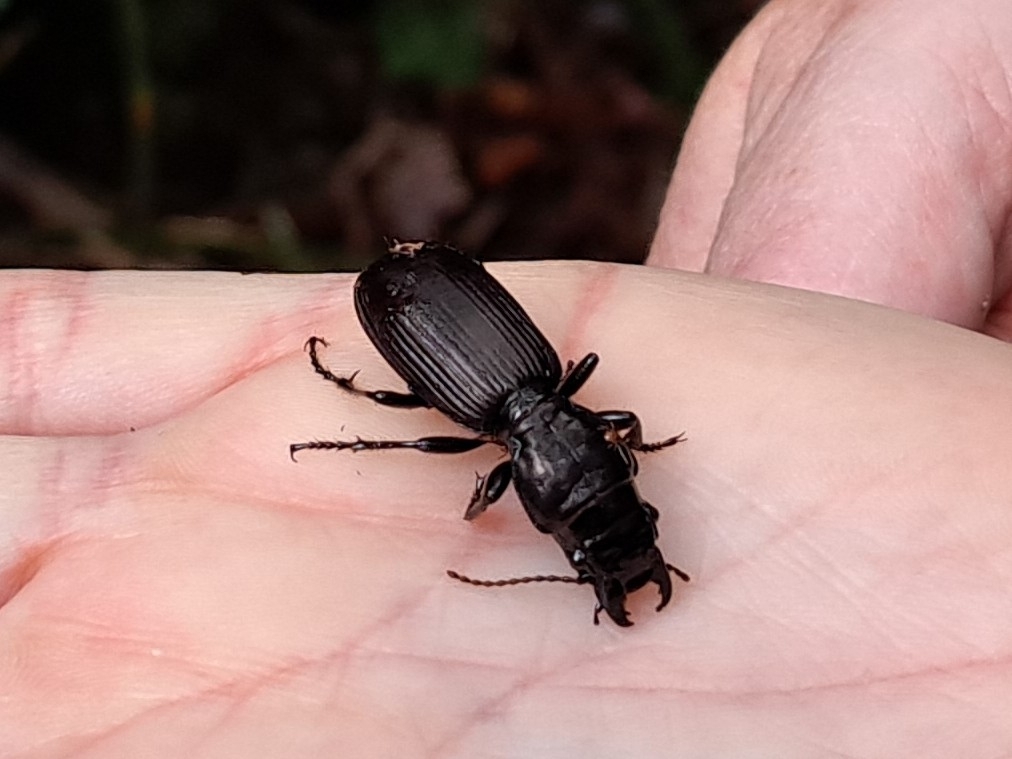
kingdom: Animalia
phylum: Arthropoda
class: Insecta
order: Coleoptera
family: Carabidae
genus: Mecodema
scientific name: Mecodema spiniferum
